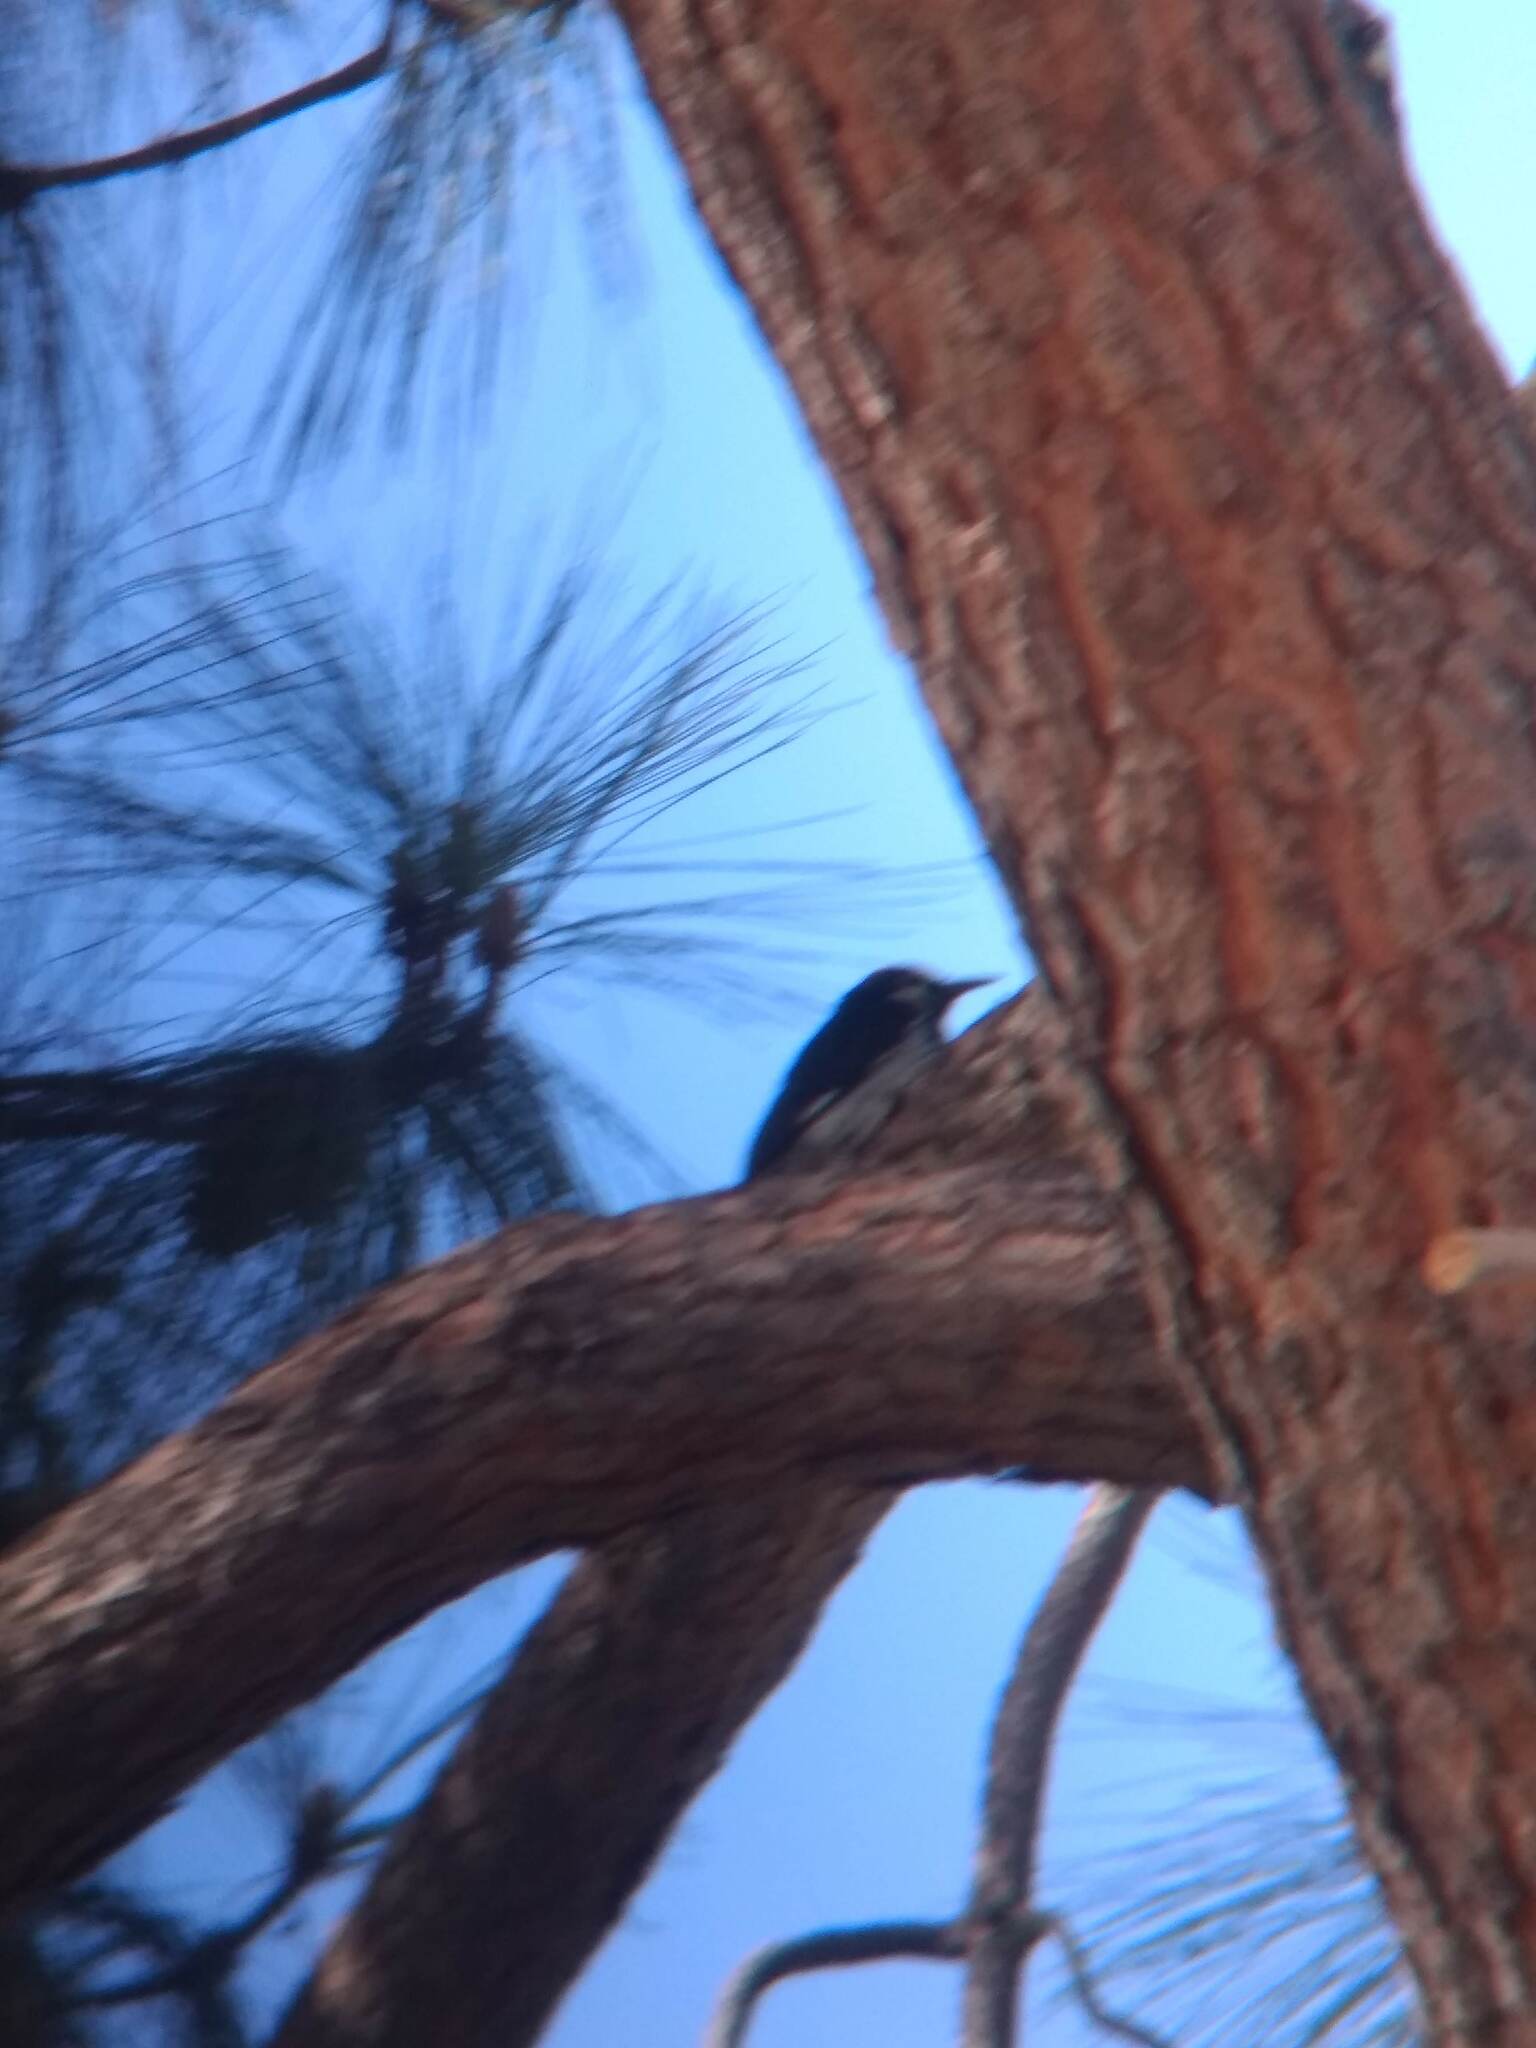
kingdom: Animalia
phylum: Chordata
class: Aves
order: Piciformes
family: Picidae
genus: Melanerpes
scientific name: Melanerpes formicivorus
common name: Acorn woodpecker
